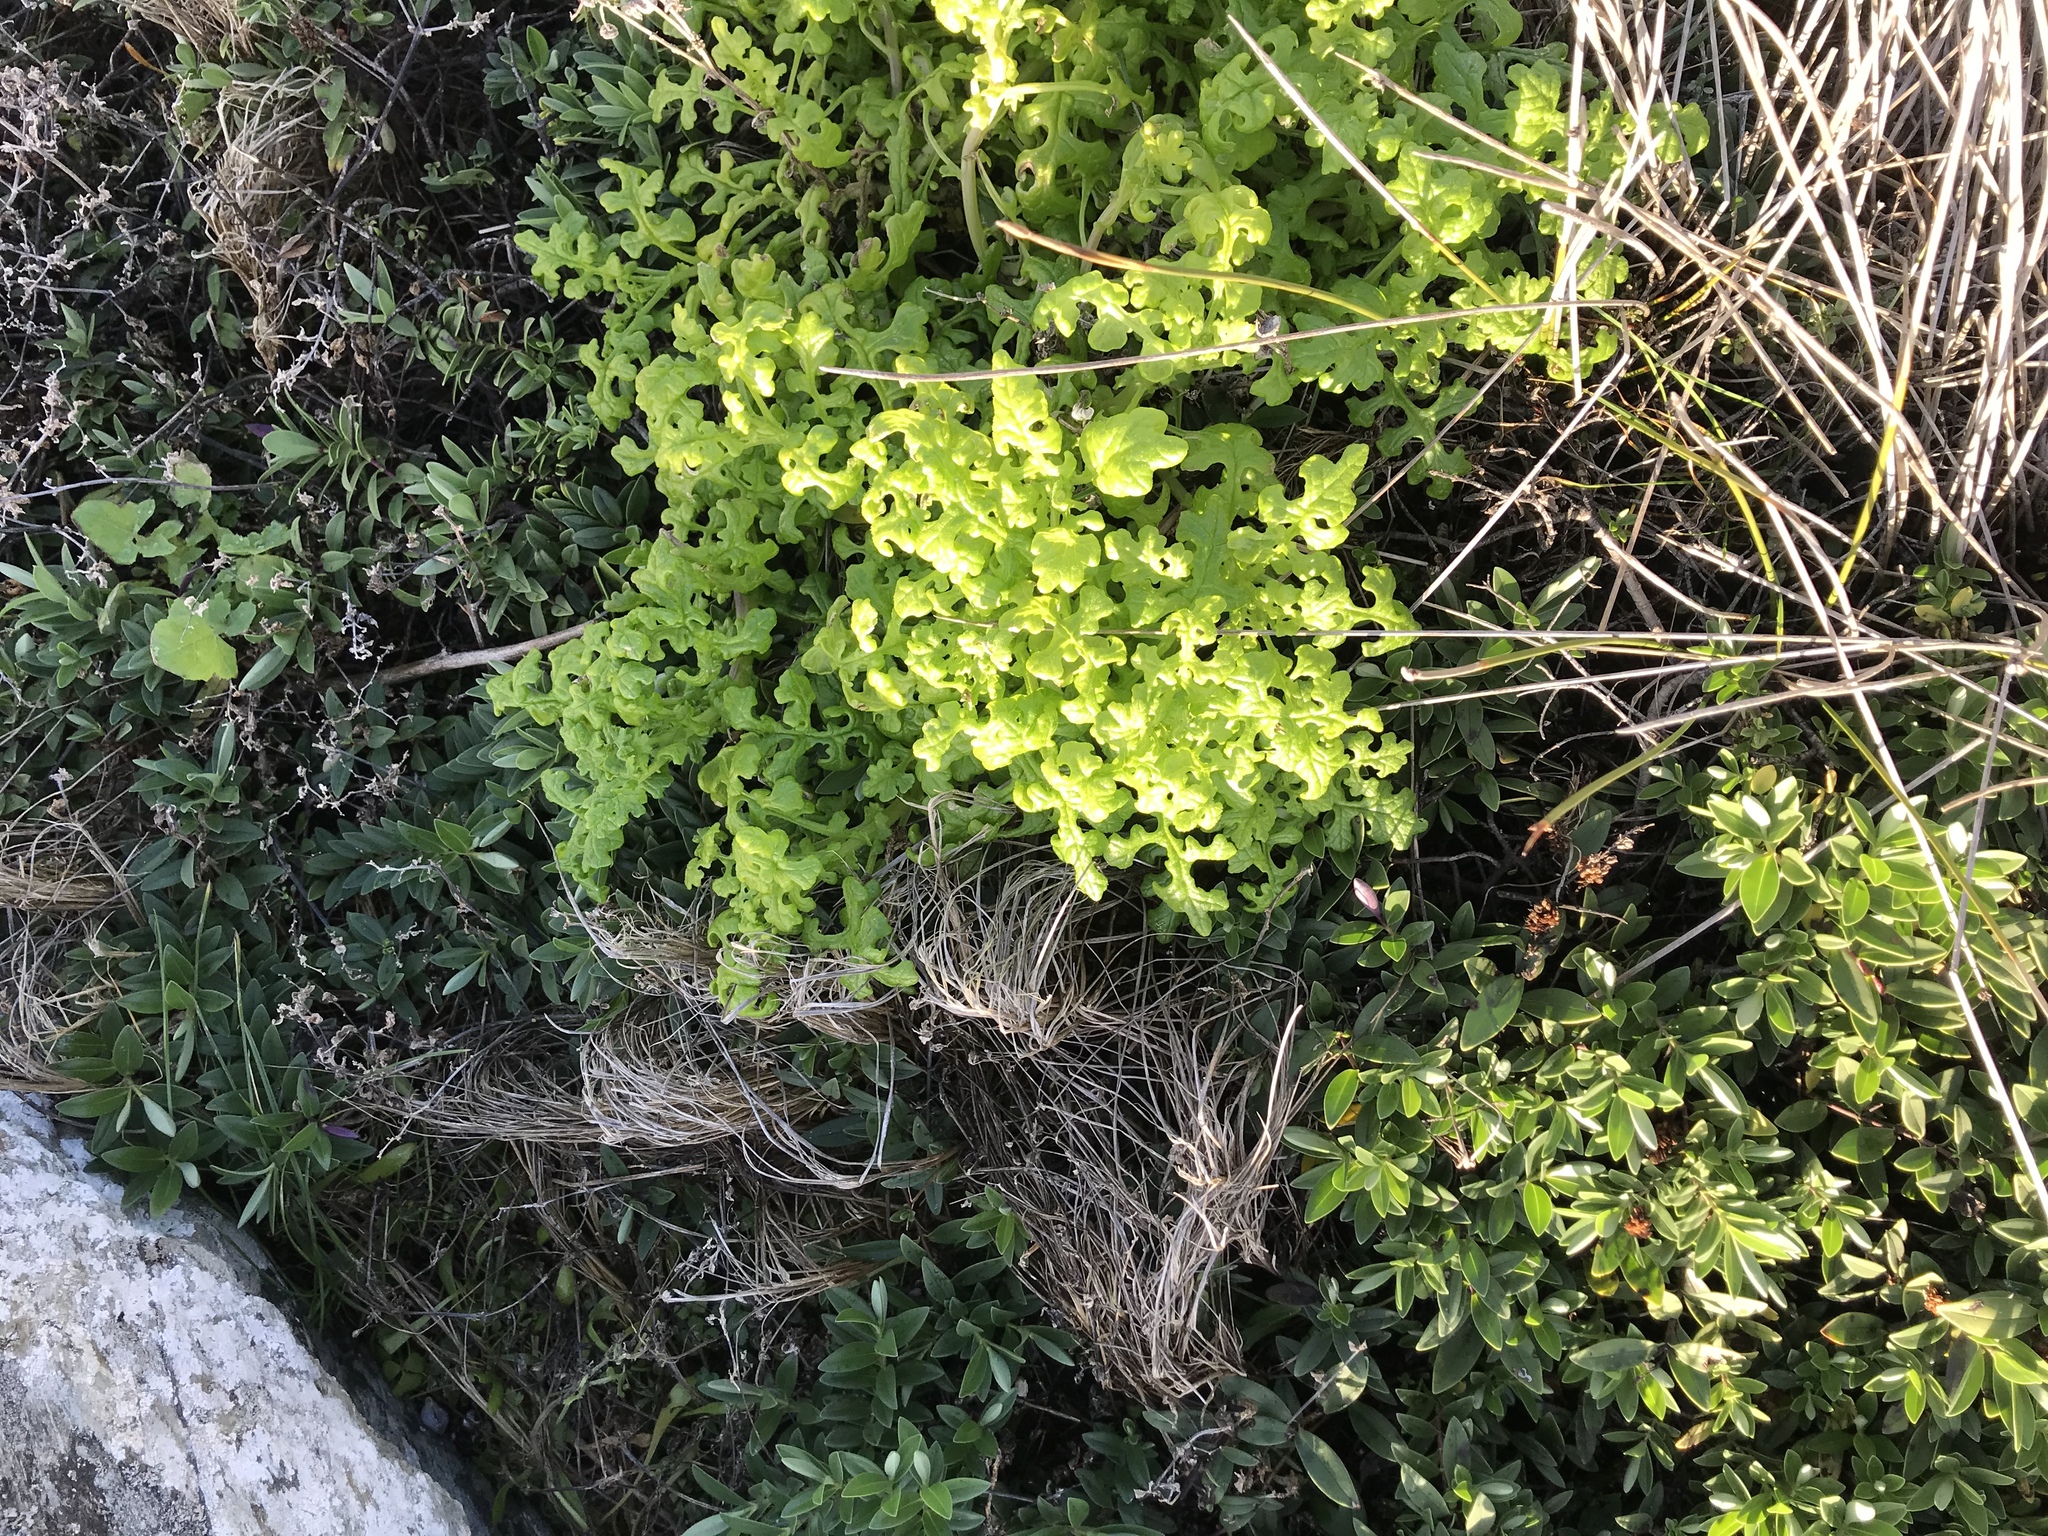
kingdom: Plantae
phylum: Tracheophyta
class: Magnoliopsida
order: Asterales
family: Asteraceae
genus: Senecio
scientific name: Senecio elegans
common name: Purple groundsel
